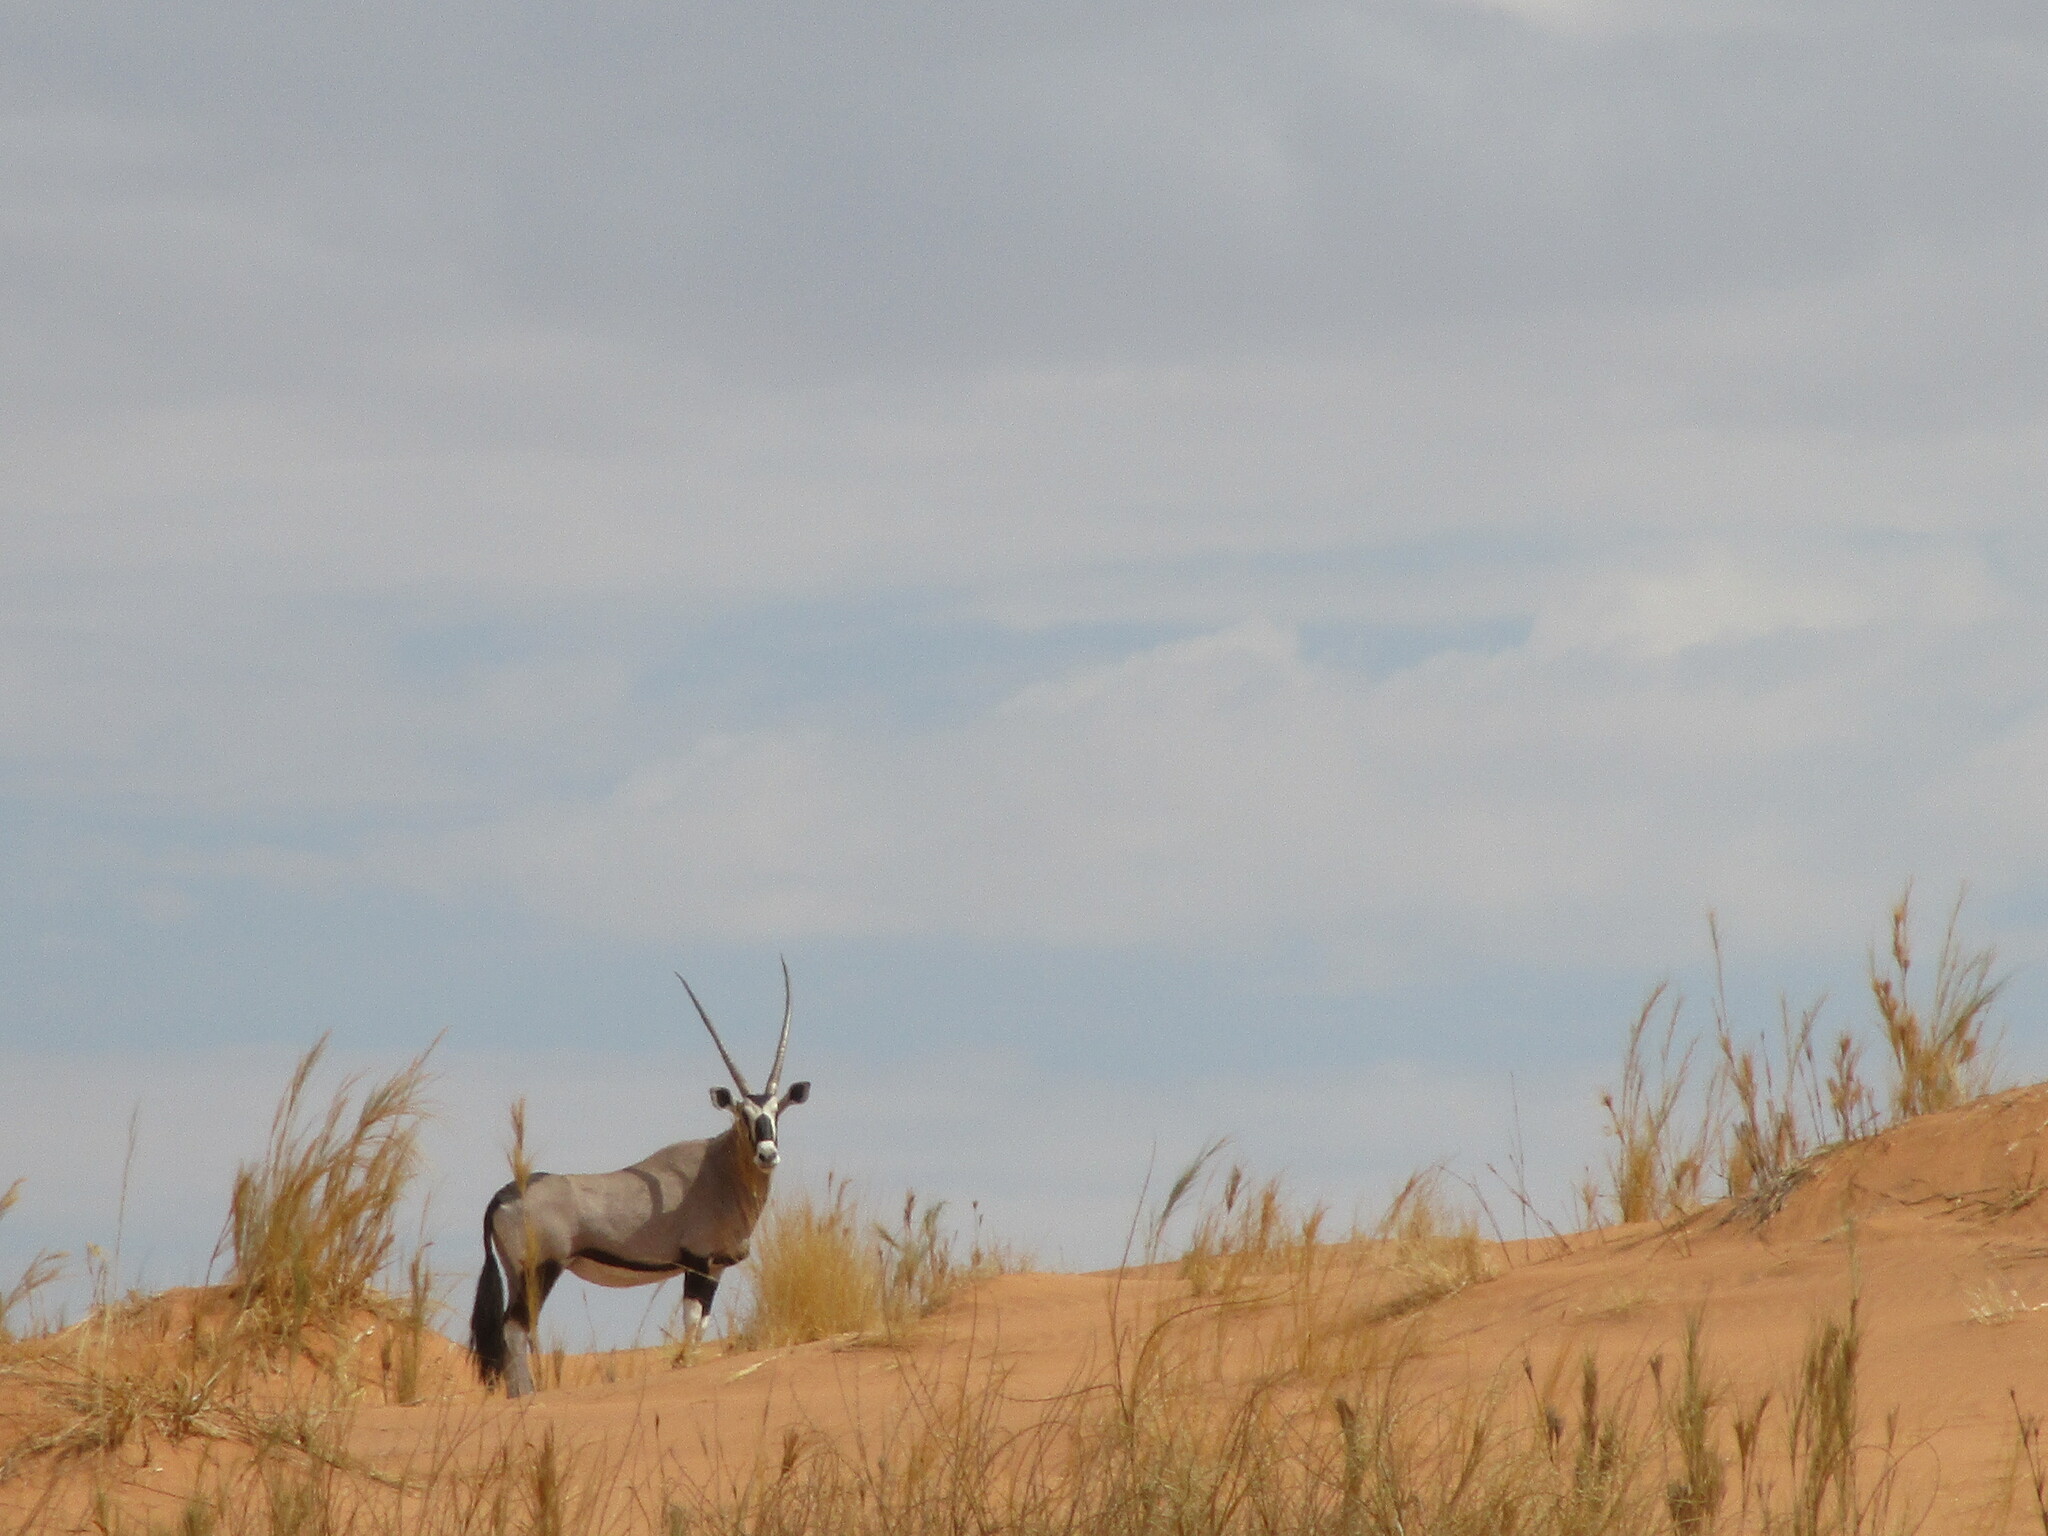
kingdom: Animalia
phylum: Chordata
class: Mammalia
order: Artiodactyla
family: Bovidae
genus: Oryx
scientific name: Oryx gazella
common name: Gemsbok
